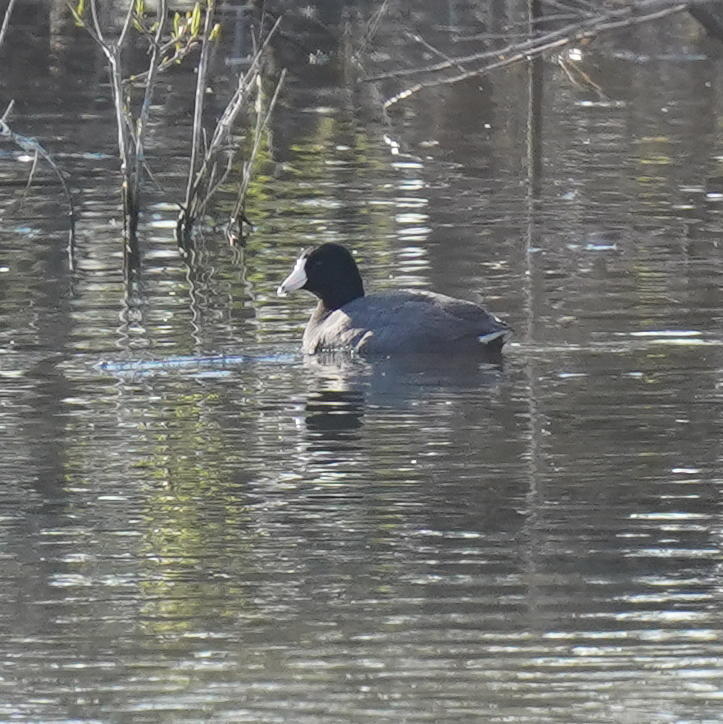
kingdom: Animalia
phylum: Chordata
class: Aves
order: Gruiformes
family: Rallidae
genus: Fulica
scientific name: Fulica americana
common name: American coot
